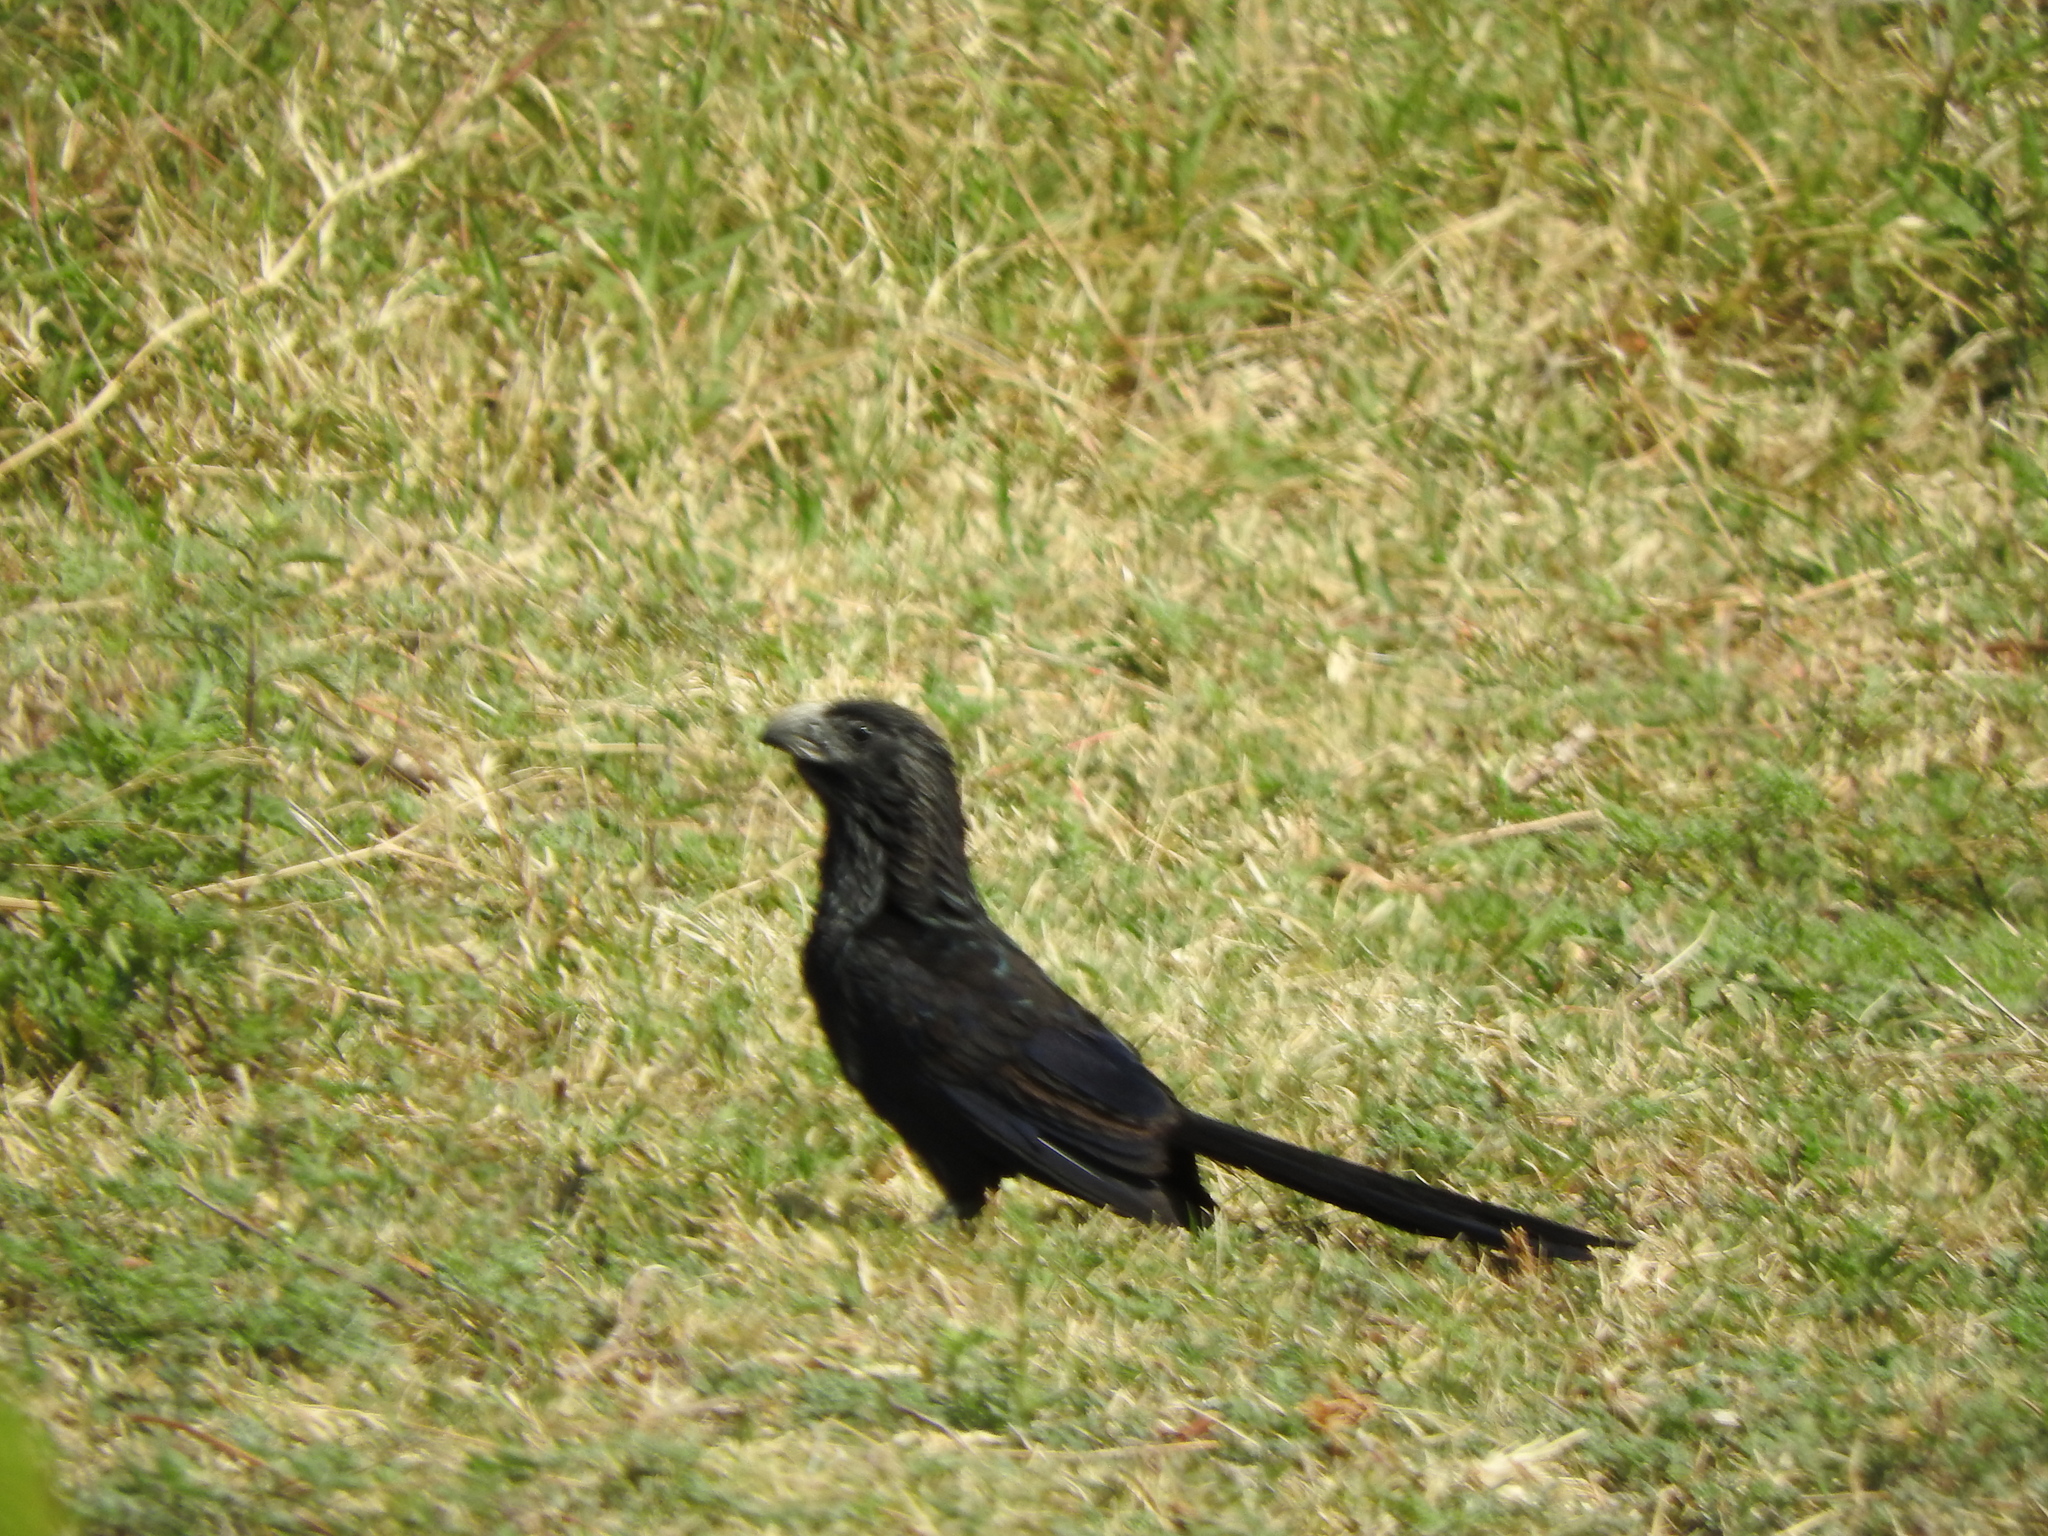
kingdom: Animalia
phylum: Chordata
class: Aves
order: Cuculiformes
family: Cuculidae
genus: Crotophaga
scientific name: Crotophaga sulcirostris
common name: Groove-billed ani
